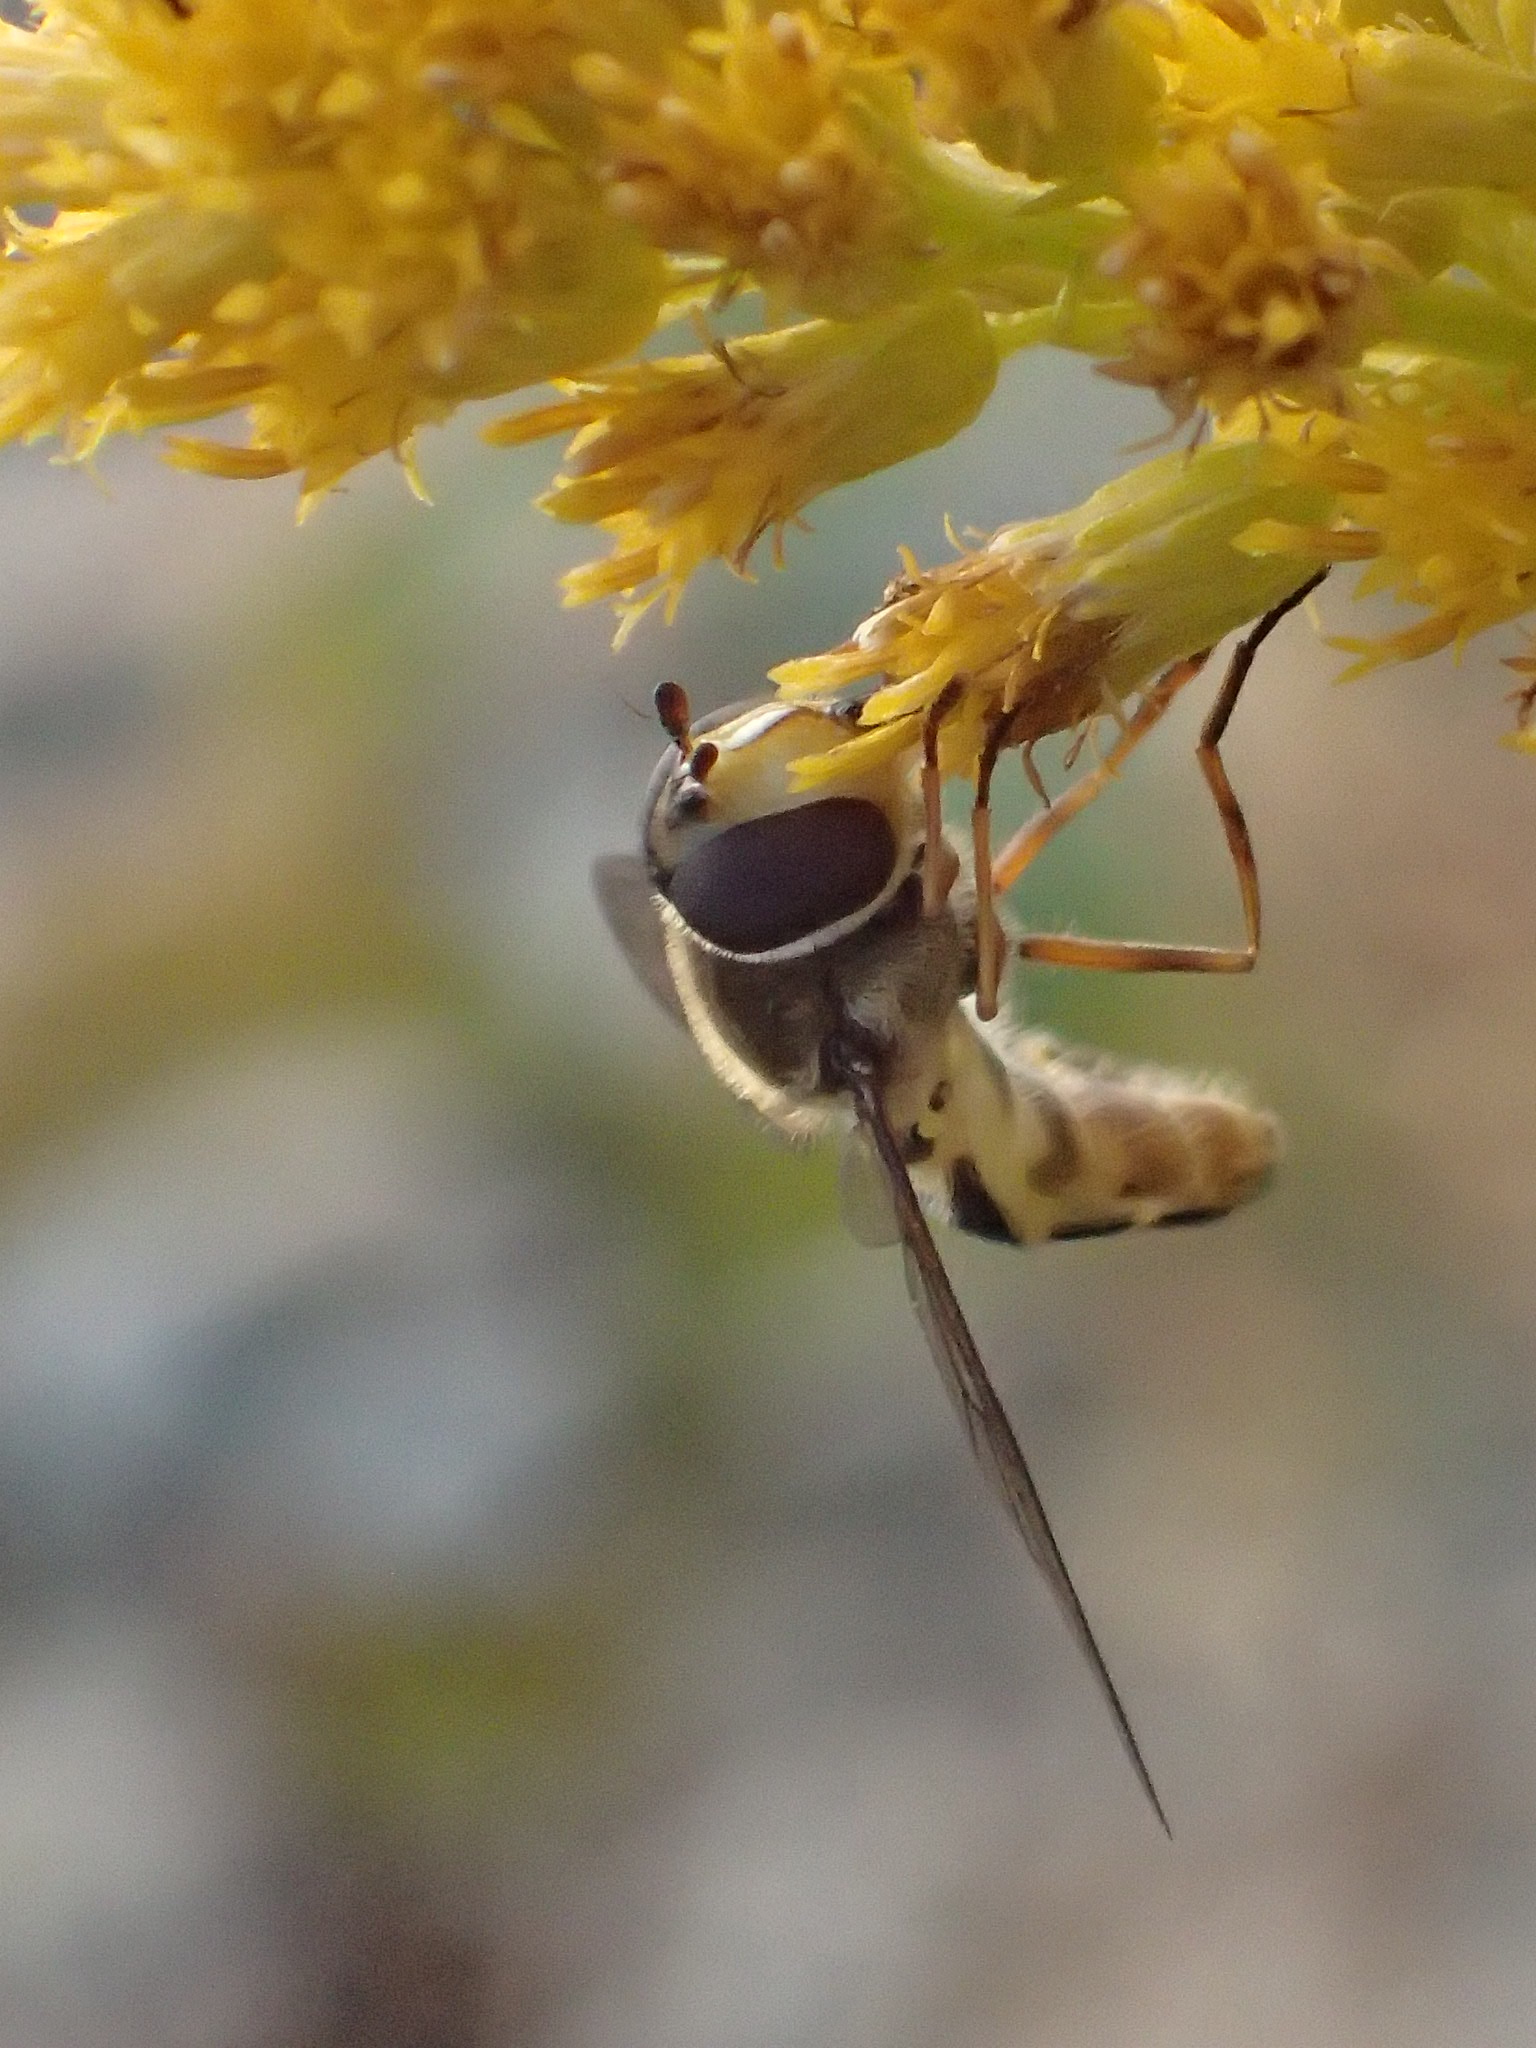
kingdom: Animalia
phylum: Arthropoda
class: Insecta
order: Diptera
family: Syrphidae
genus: Syrphus
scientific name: Syrphus ribesii
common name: Common flower fly
